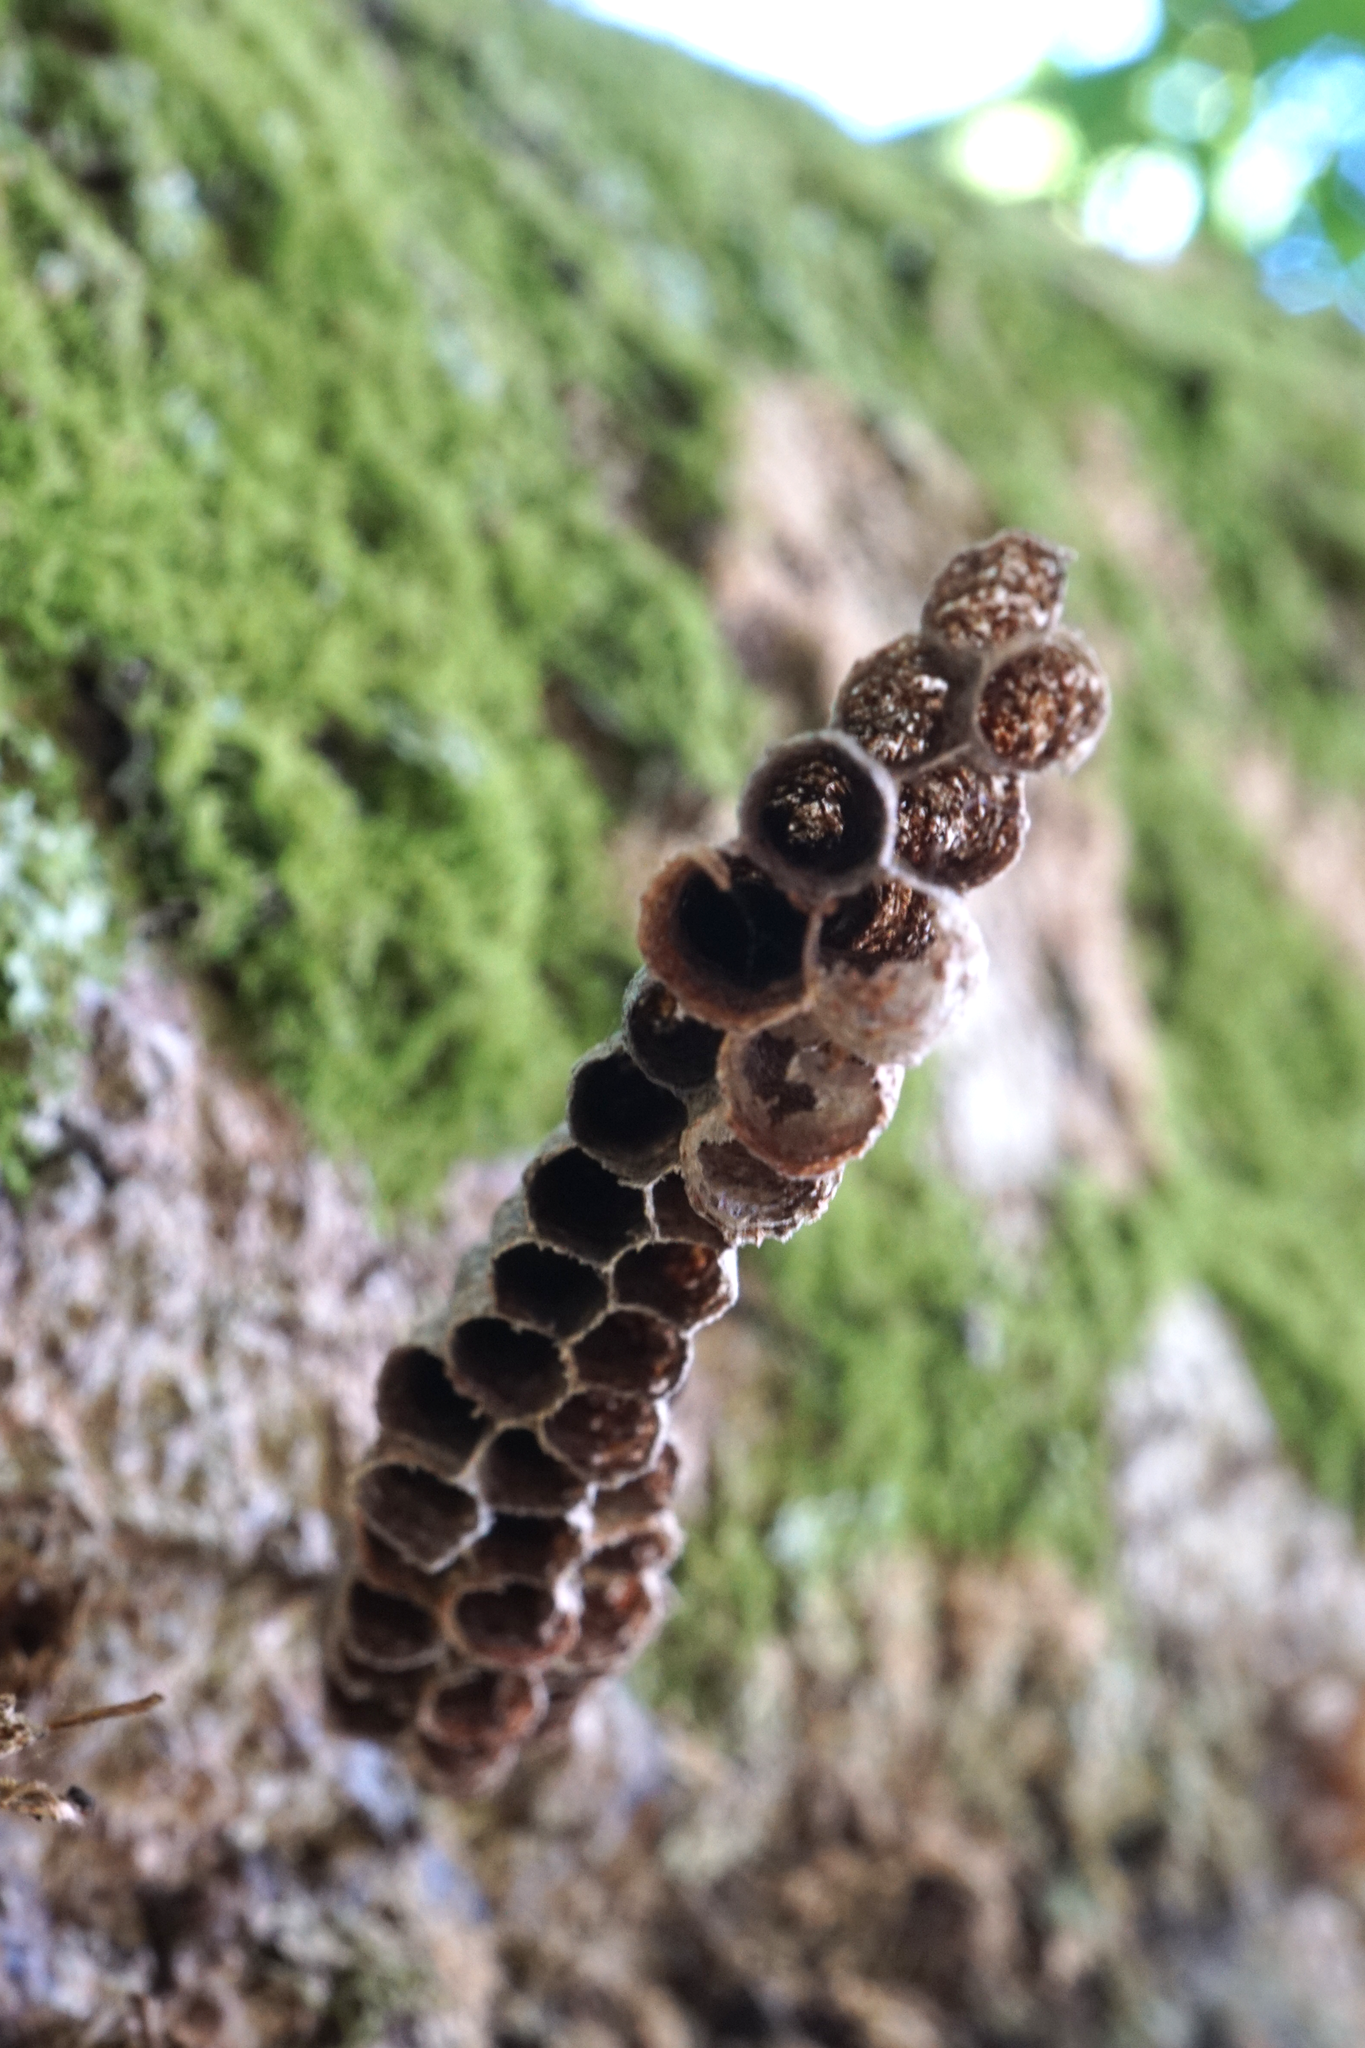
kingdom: Animalia
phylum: Arthropoda
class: Insecta
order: Hymenoptera
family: Vespidae
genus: Mischocyttarus
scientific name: Mischocyttarus mexicanus
